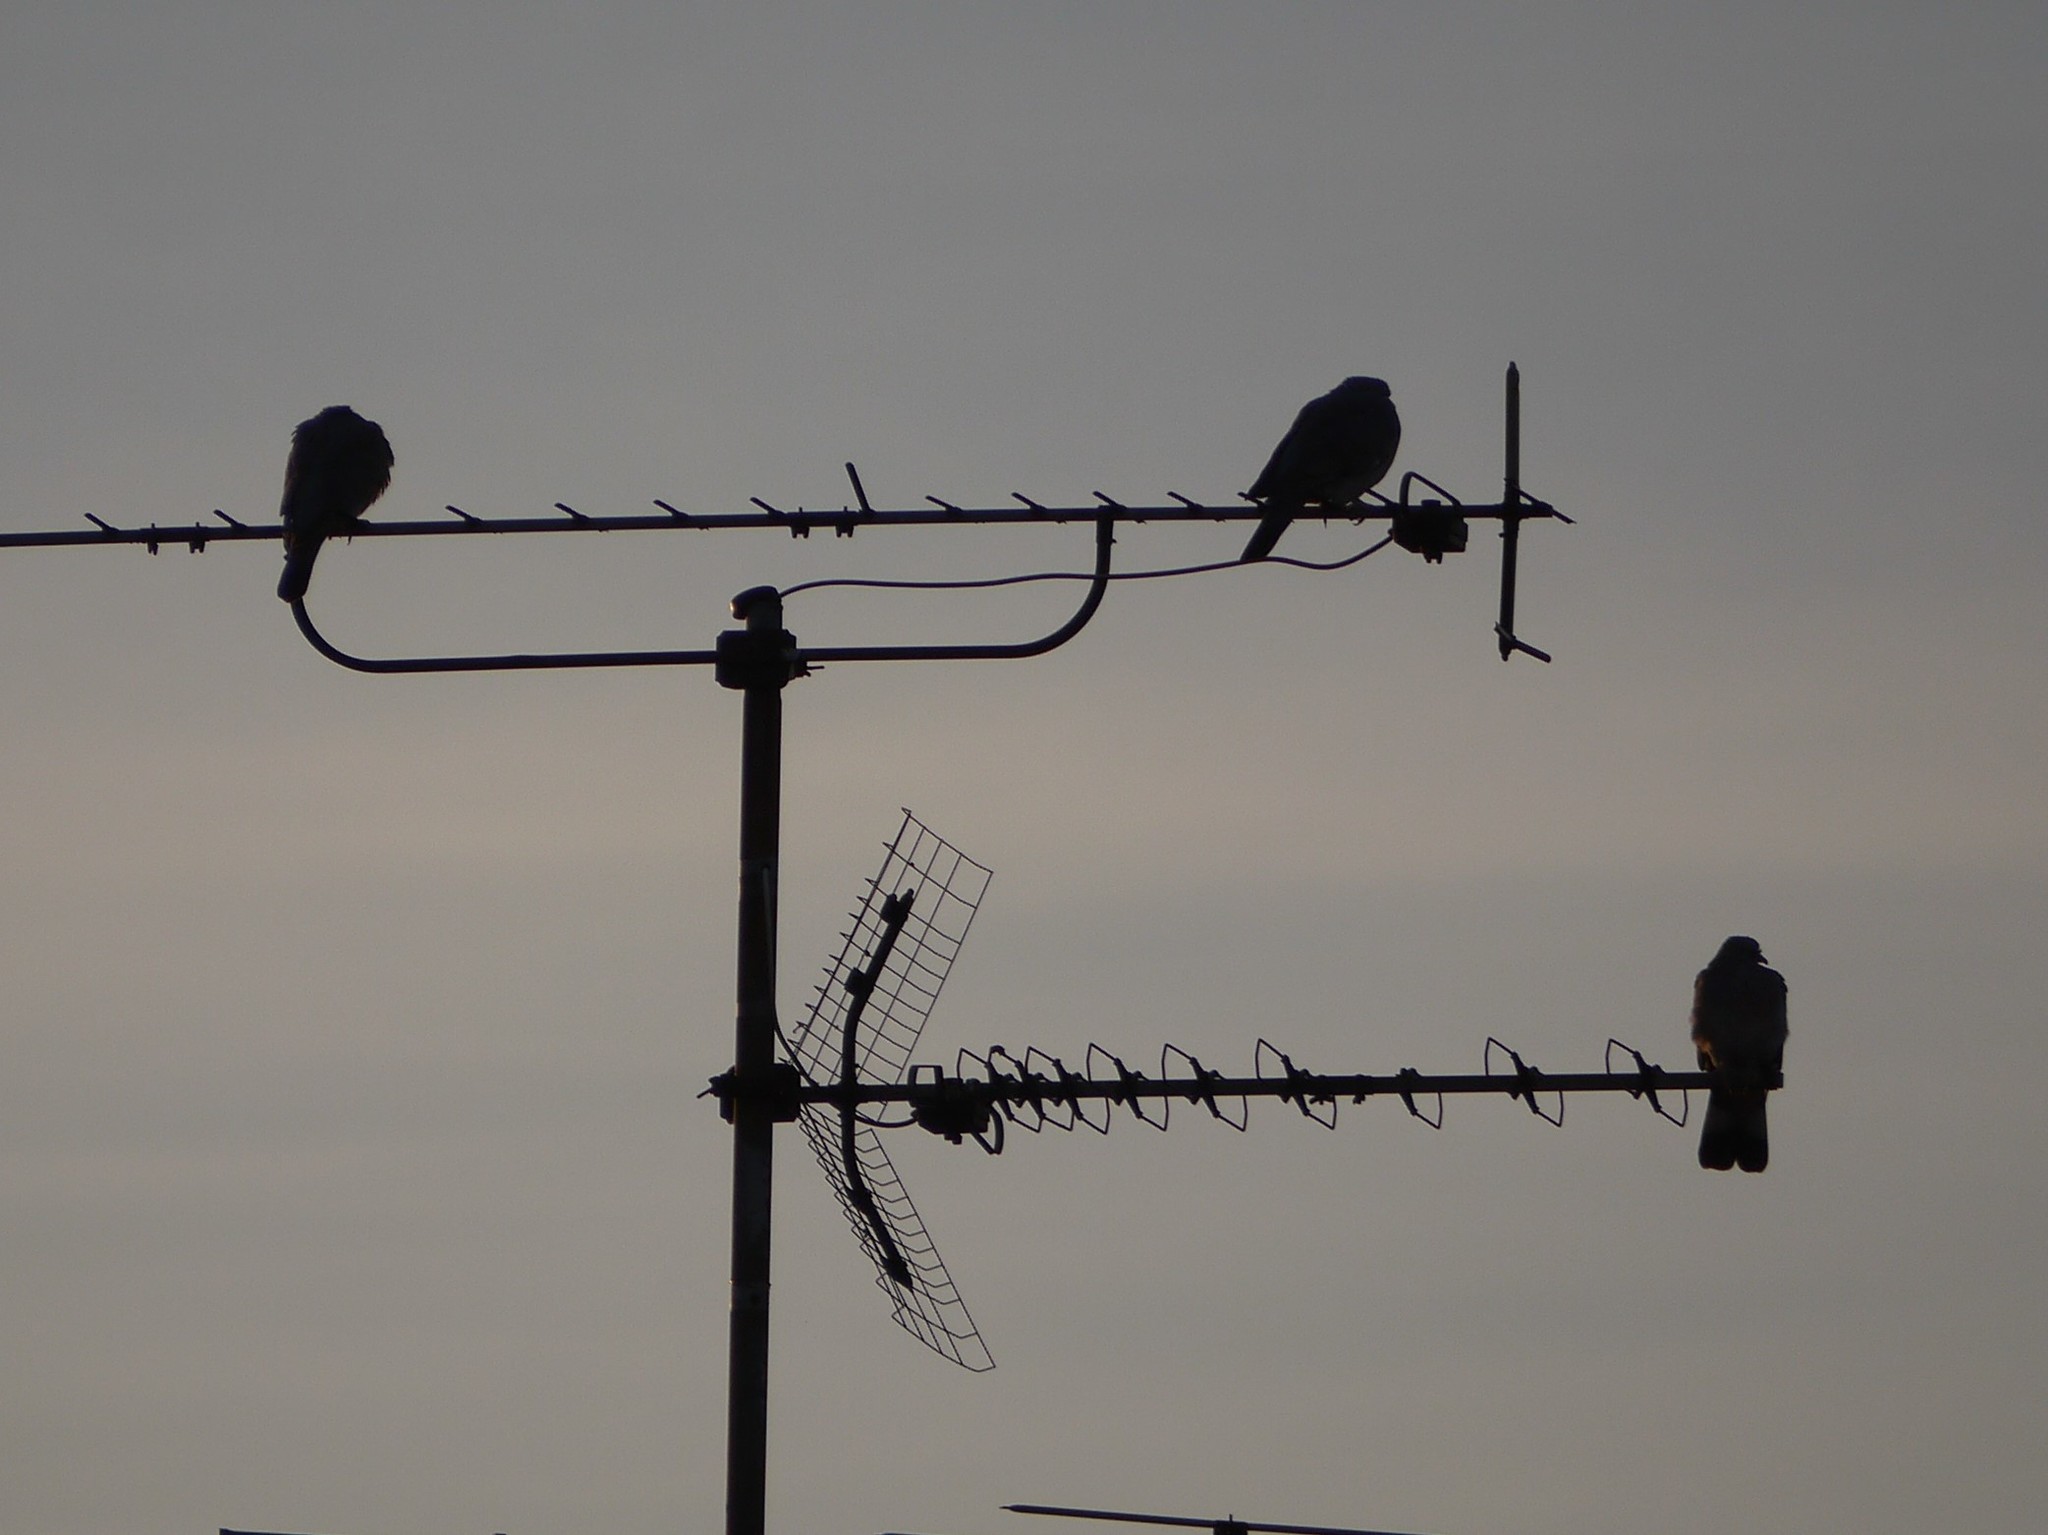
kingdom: Animalia
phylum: Chordata
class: Aves
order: Columbiformes
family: Columbidae
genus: Columba
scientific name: Columba palumbus
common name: Common wood pigeon
